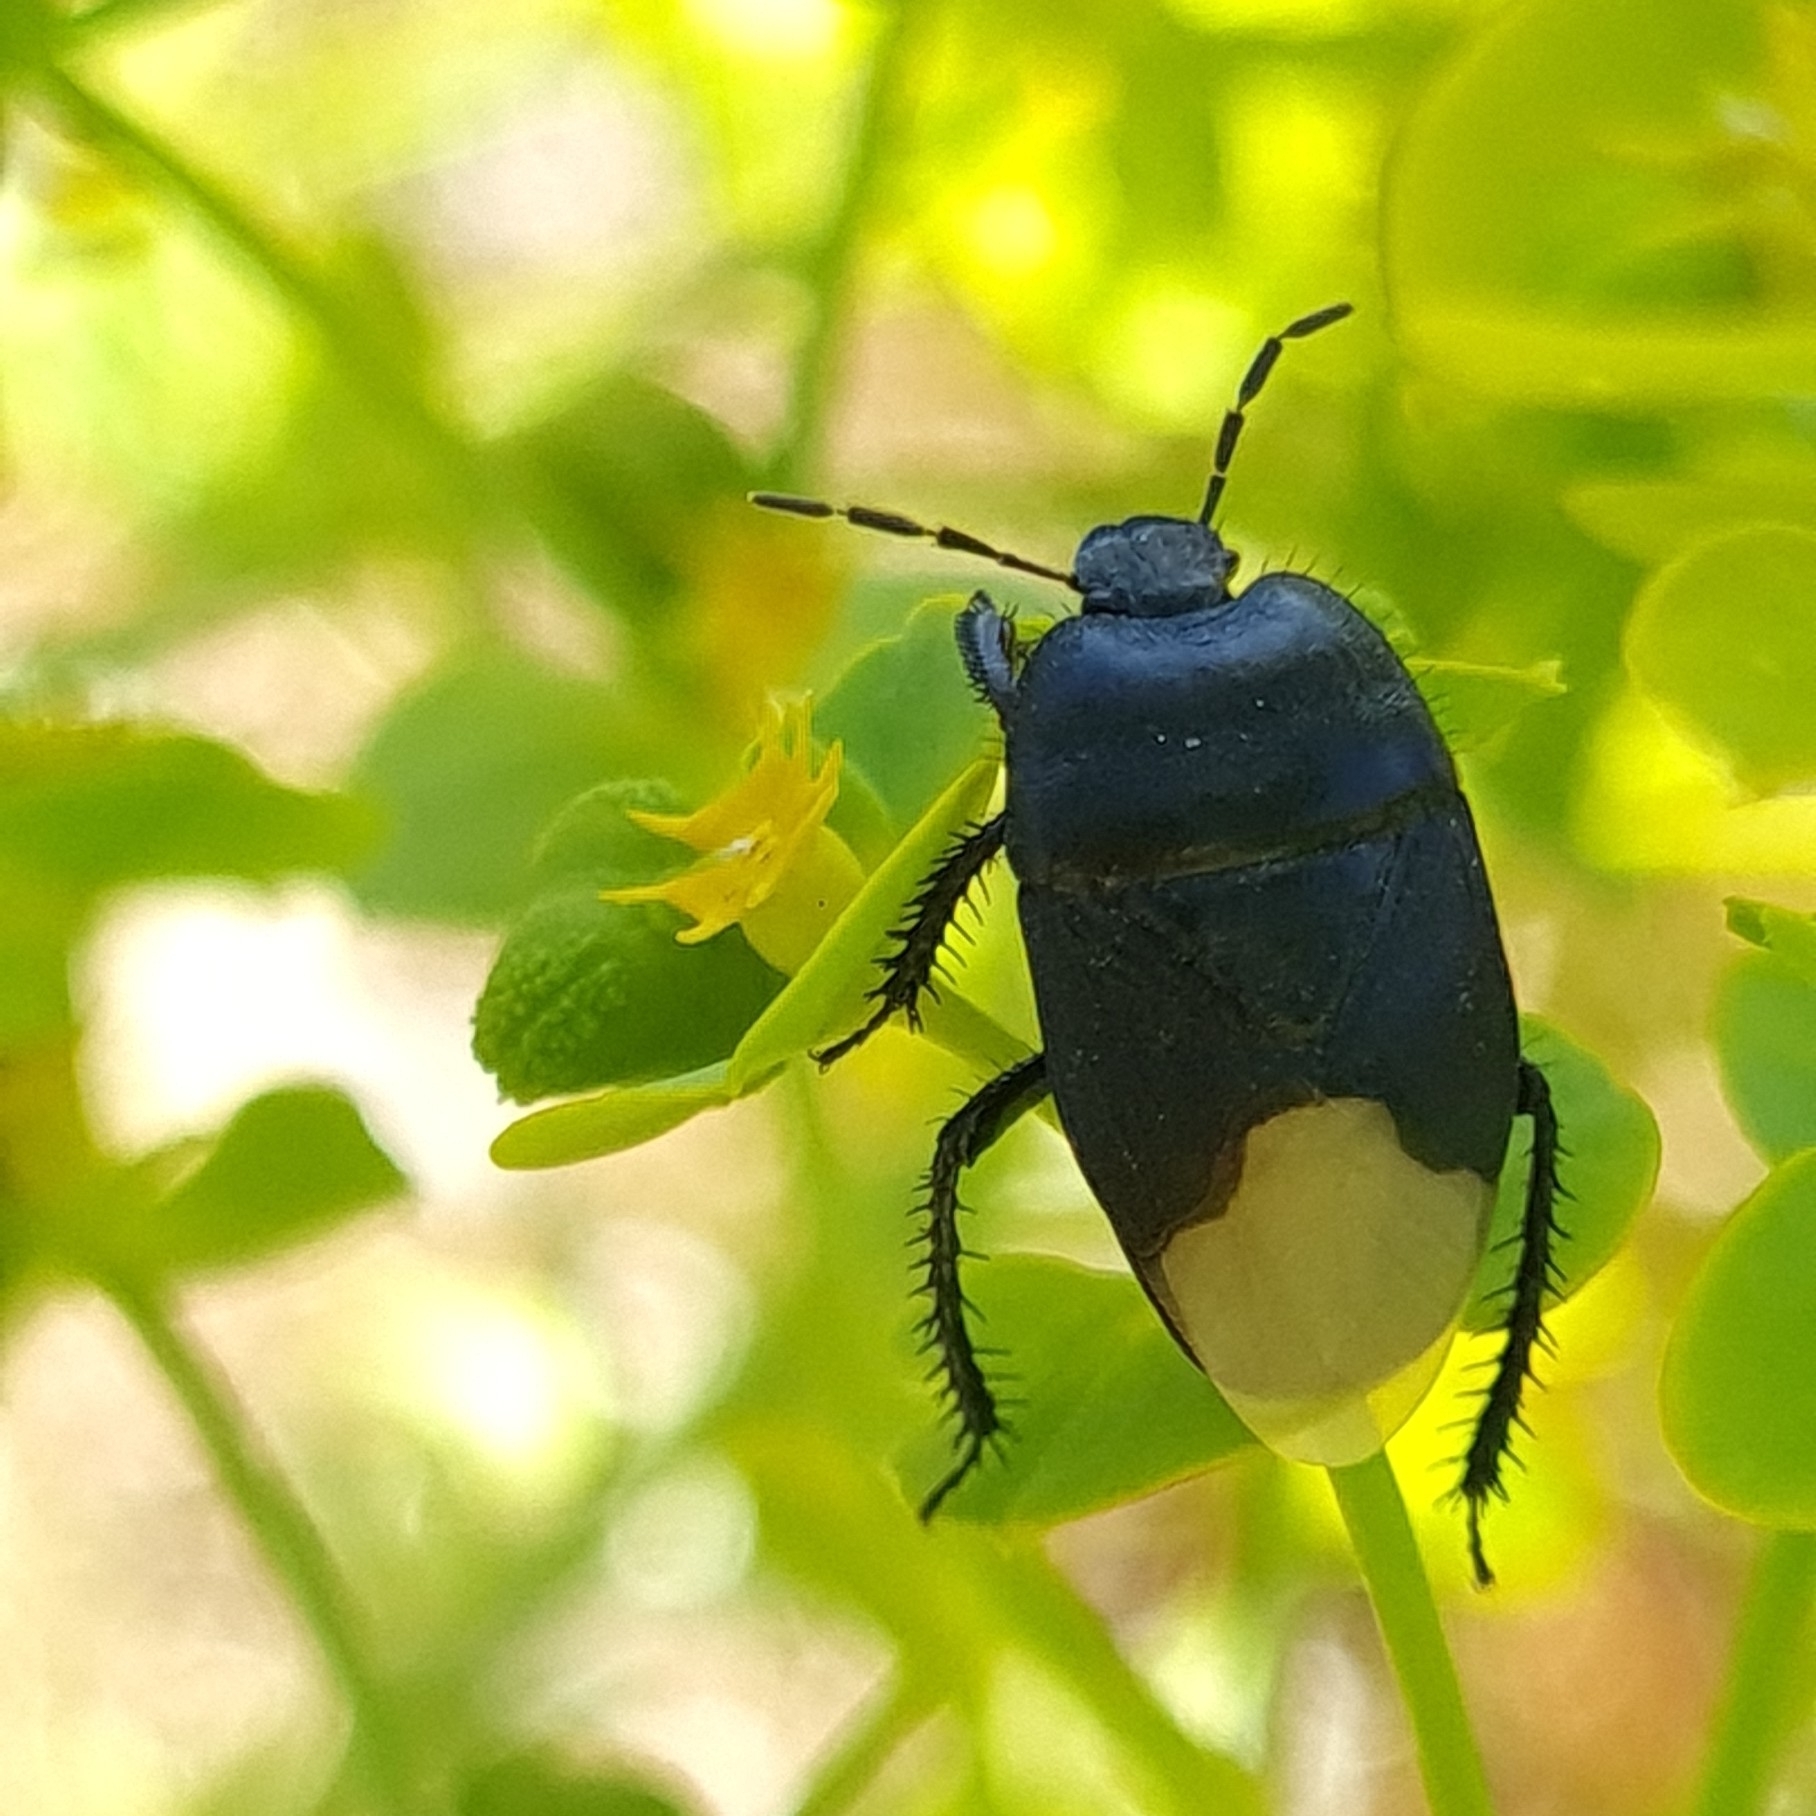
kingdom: Animalia
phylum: Arthropoda
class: Insecta
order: Hemiptera
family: Cydnidae
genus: Cydnus
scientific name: Cydnus aterrimus
